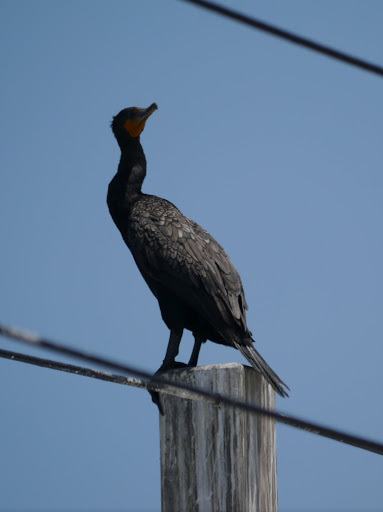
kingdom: Animalia
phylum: Chordata
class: Aves
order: Suliformes
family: Phalacrocoracidae
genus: Phalacrocorax
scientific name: Phalacrocorax auritus
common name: Double-crested cormorant
